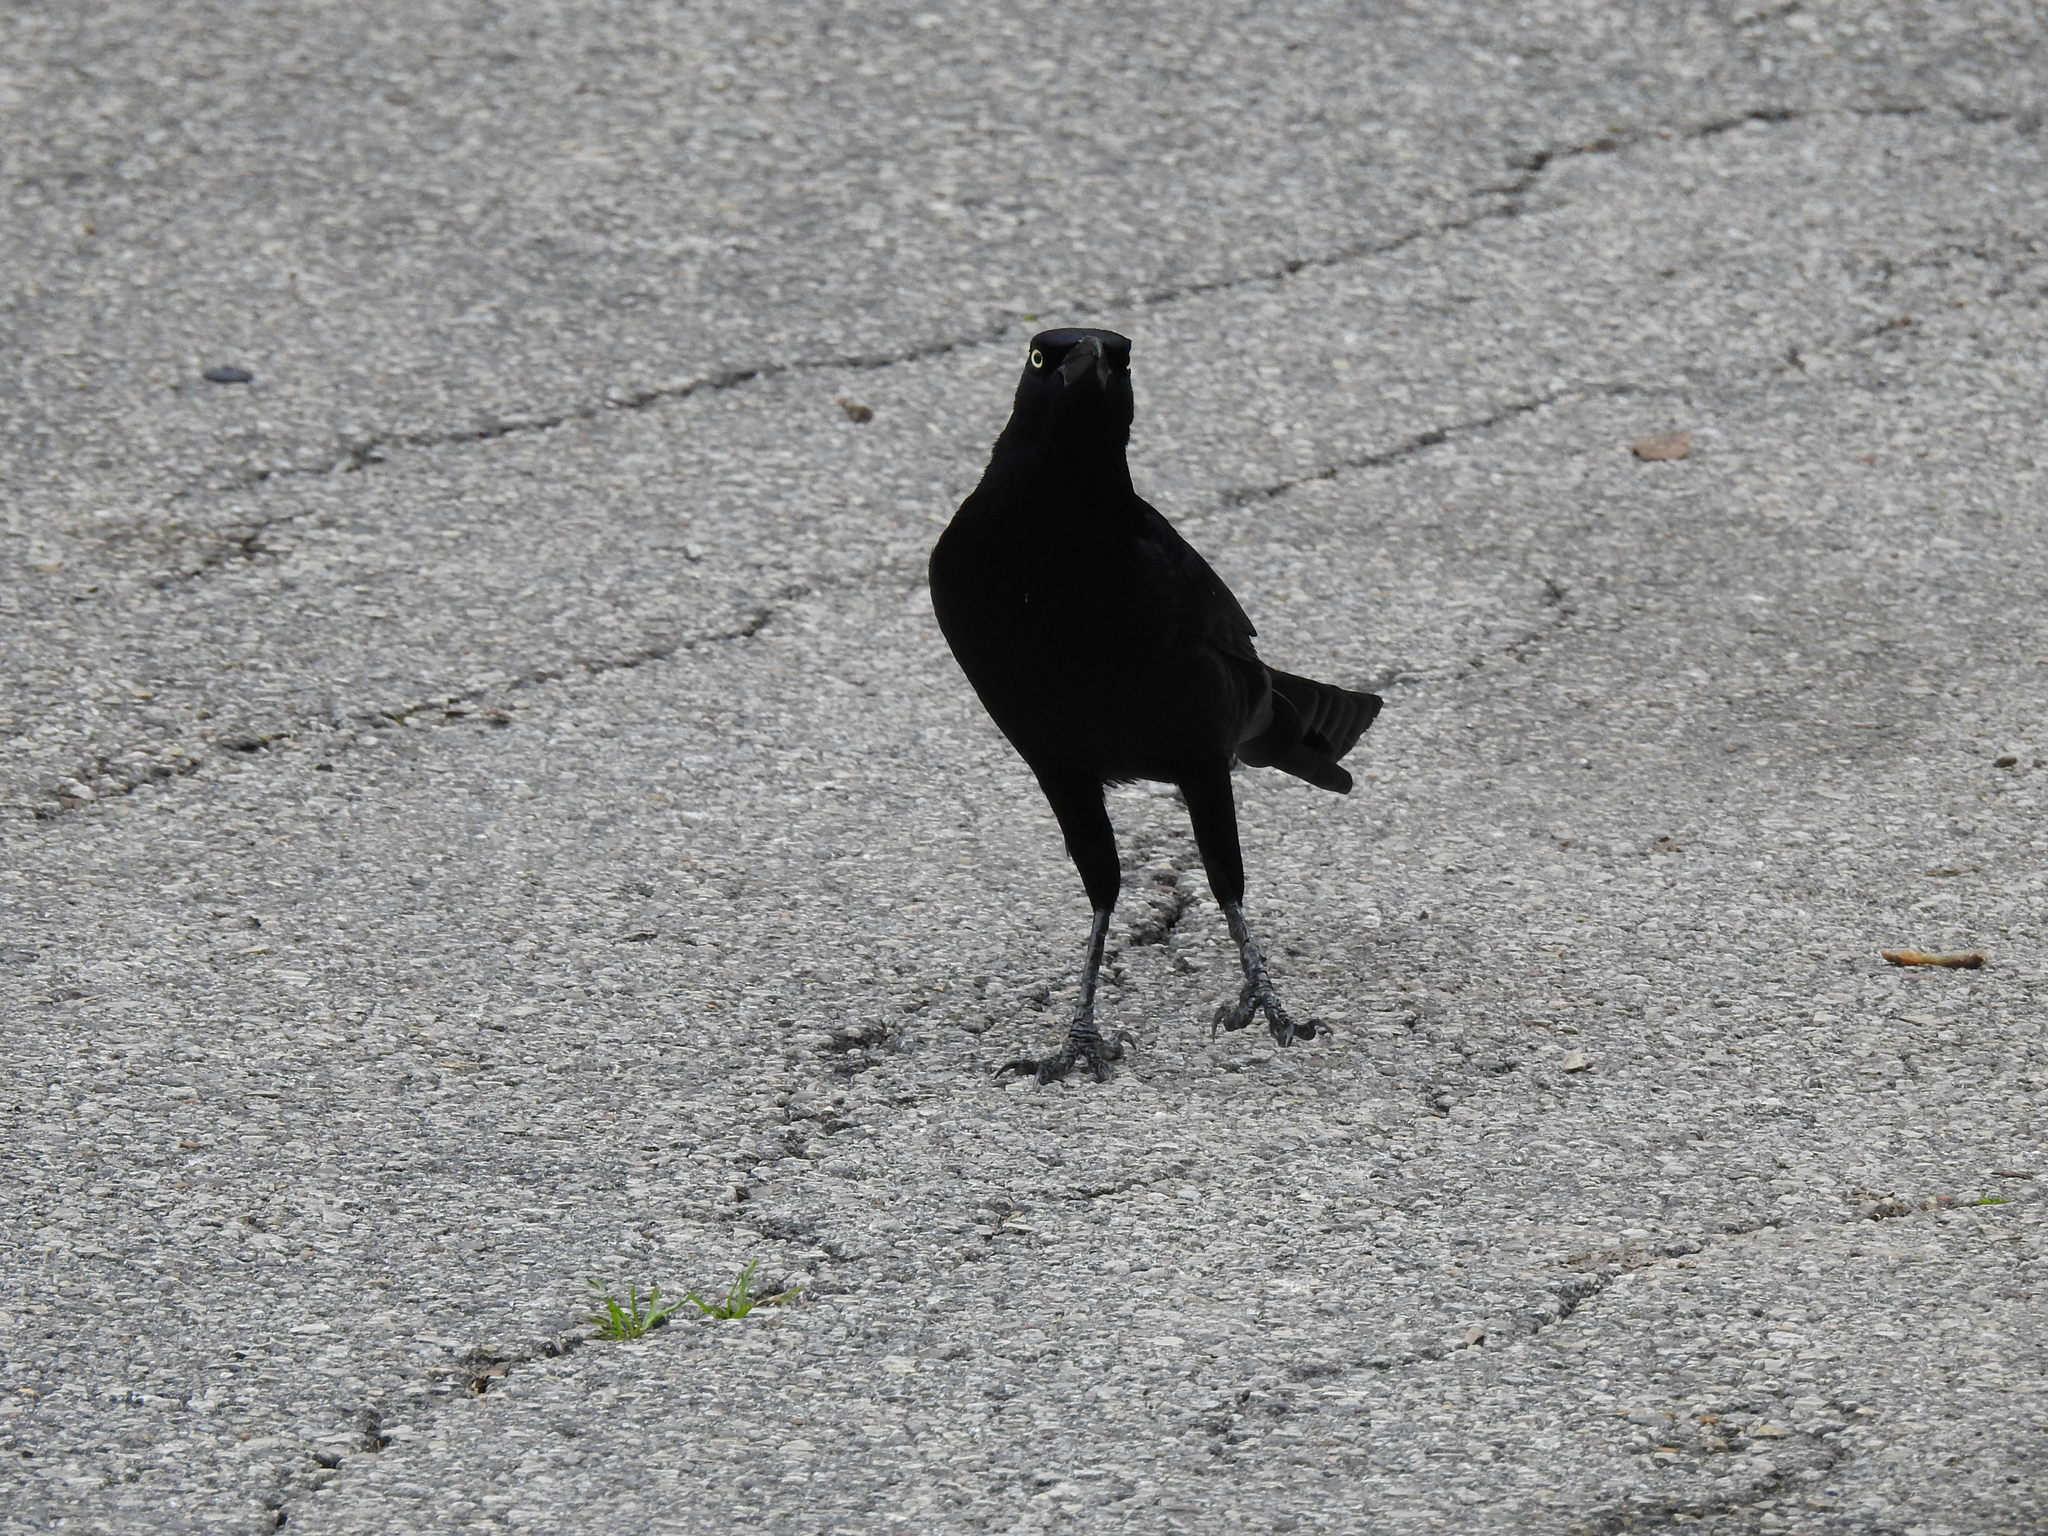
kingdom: Animalia
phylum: Chordata
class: Aves
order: Passeriformes
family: Icteridae
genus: Quiscalus
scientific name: Quiscalus mexicanus
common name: Great-tailed grackle
